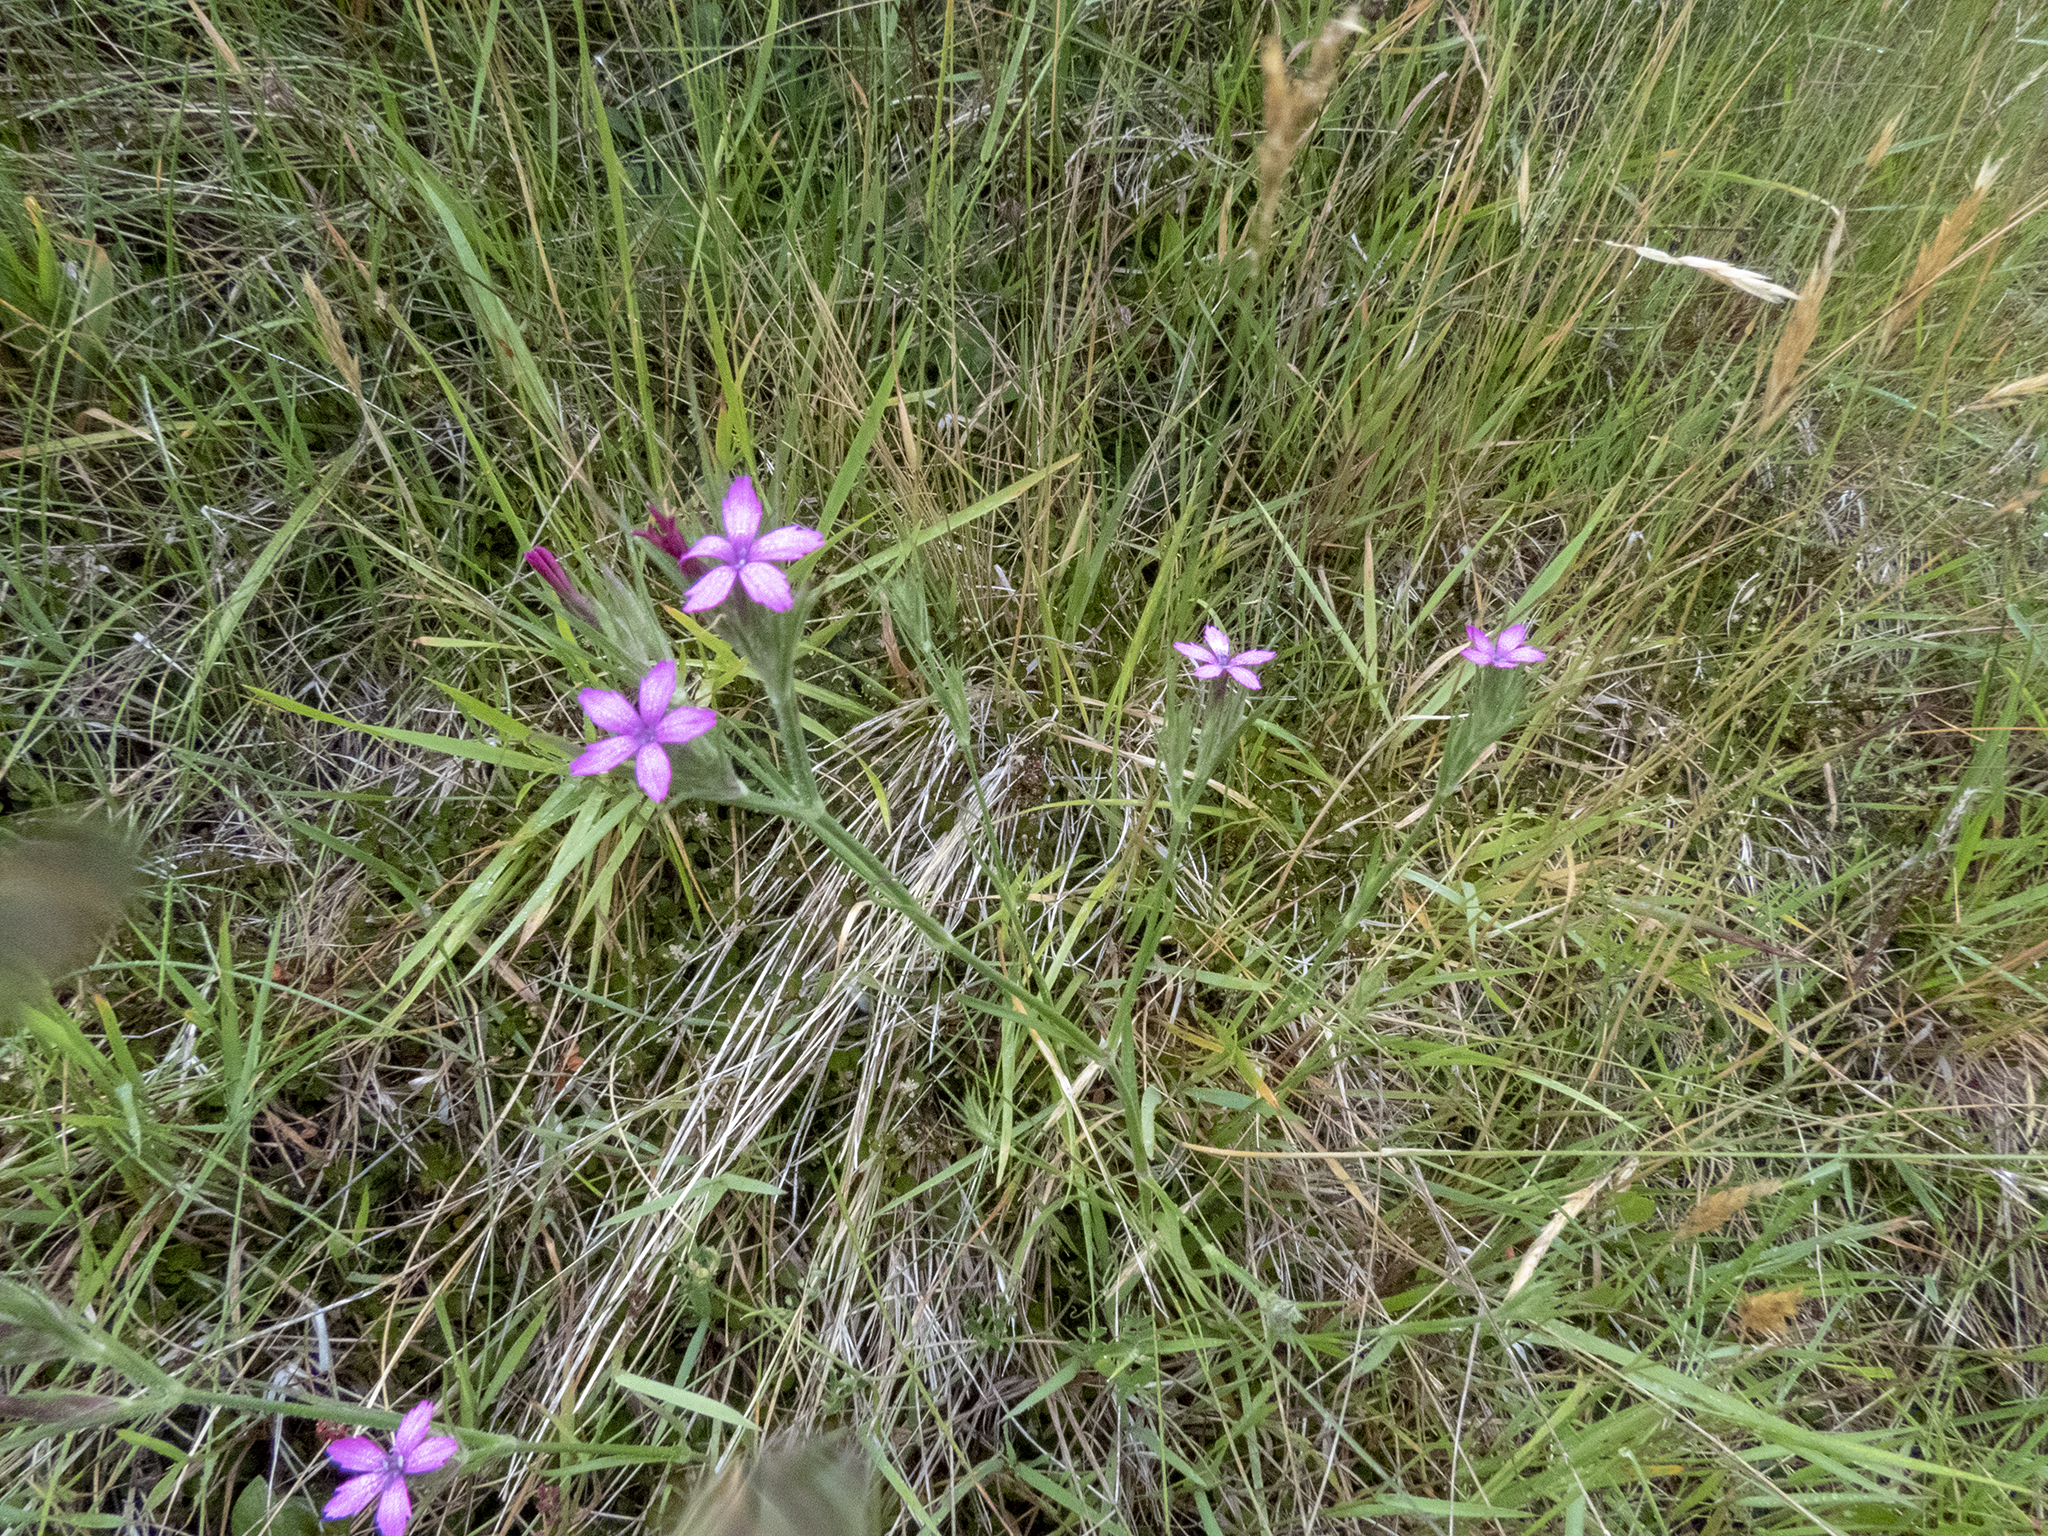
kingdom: Plantae
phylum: Tracheophyta
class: Magnoliopsida
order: Caryophyllales
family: Caryophyllaceae
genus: Dianthus
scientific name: Dianthus armeria
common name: Deptford pink
